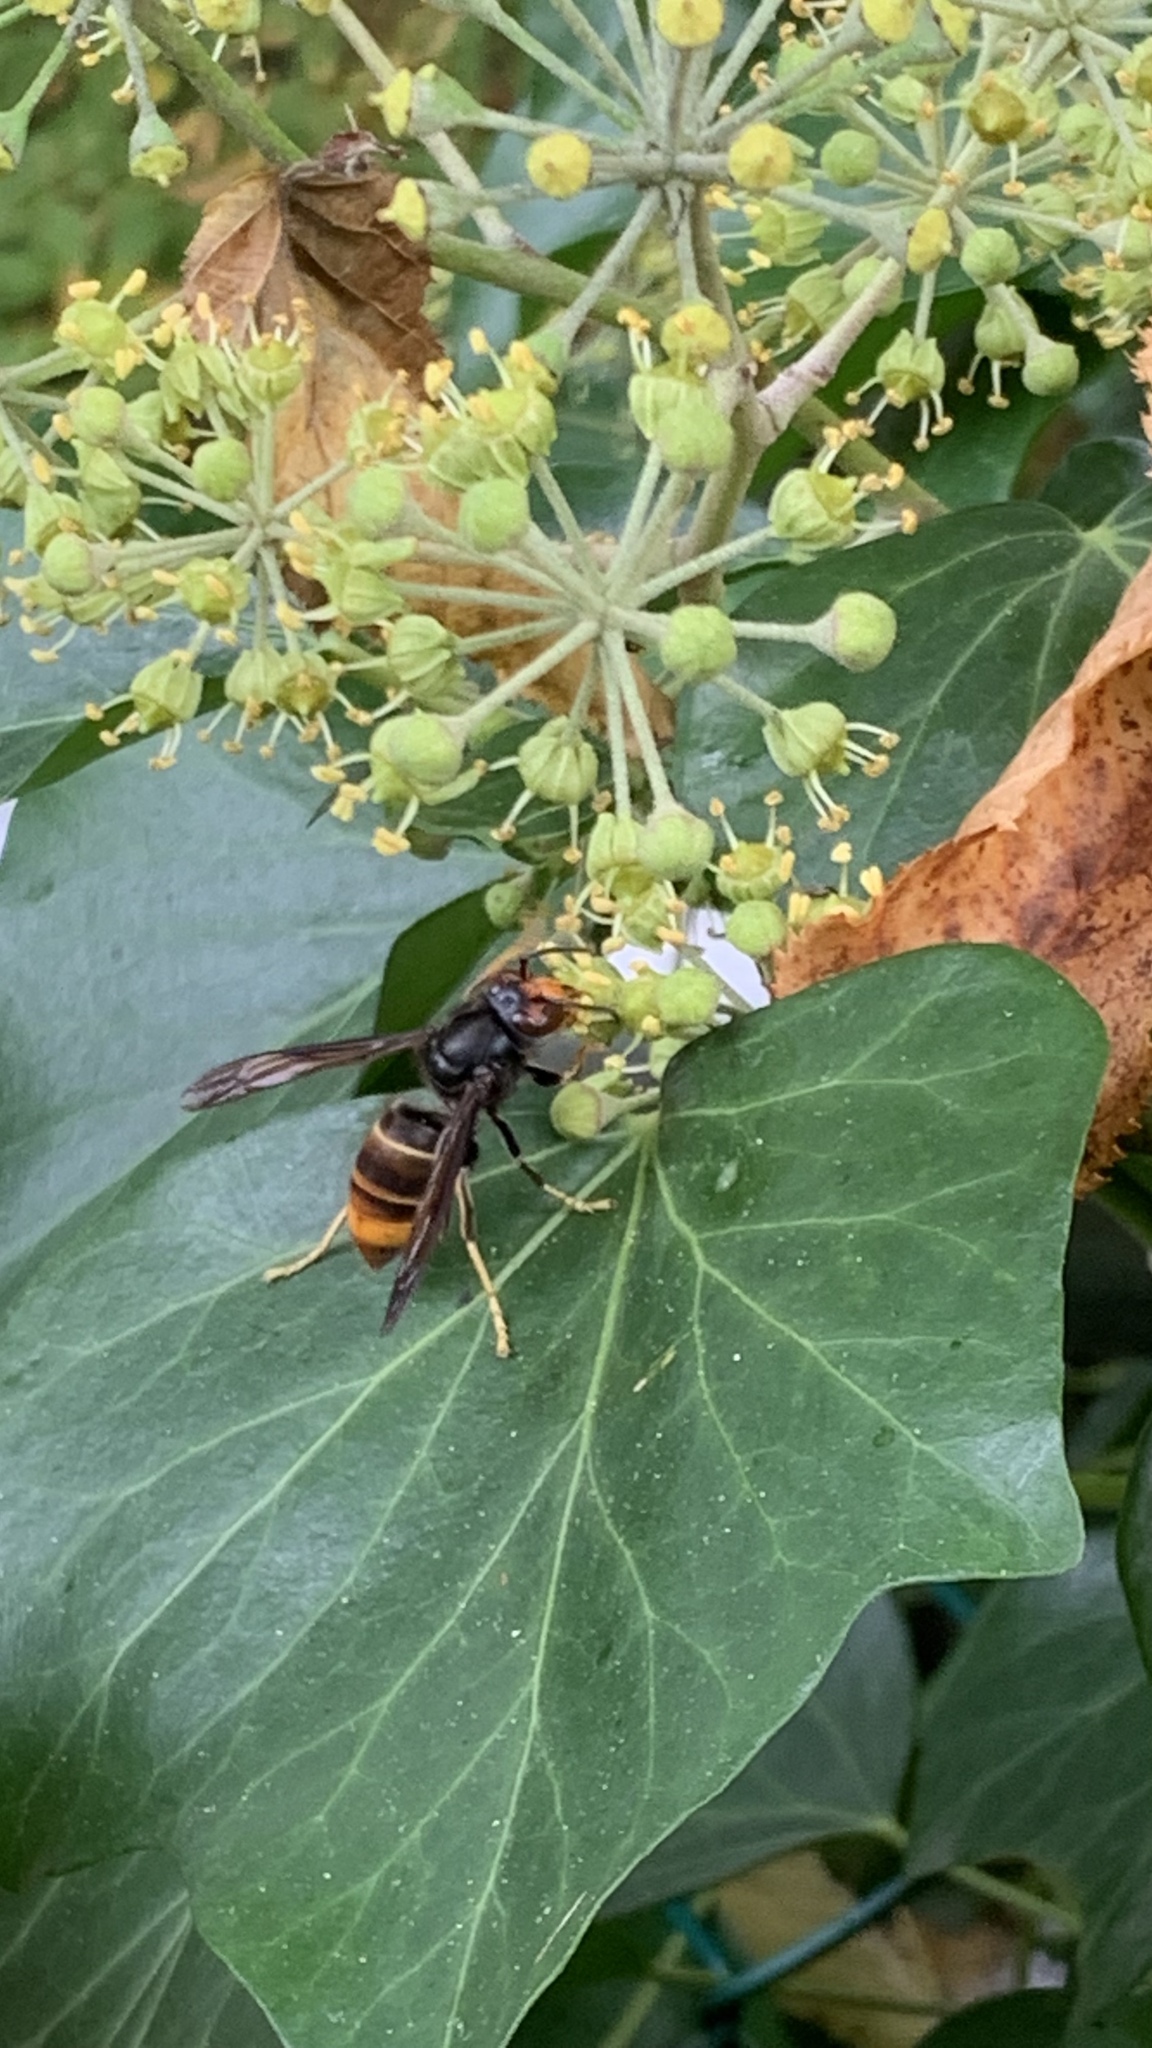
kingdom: Animalia
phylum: Arthropoda
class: Insecta
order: Hymenoptera
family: Vespidae
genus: Vespa
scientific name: Vespa velutina
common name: Asian hornet
